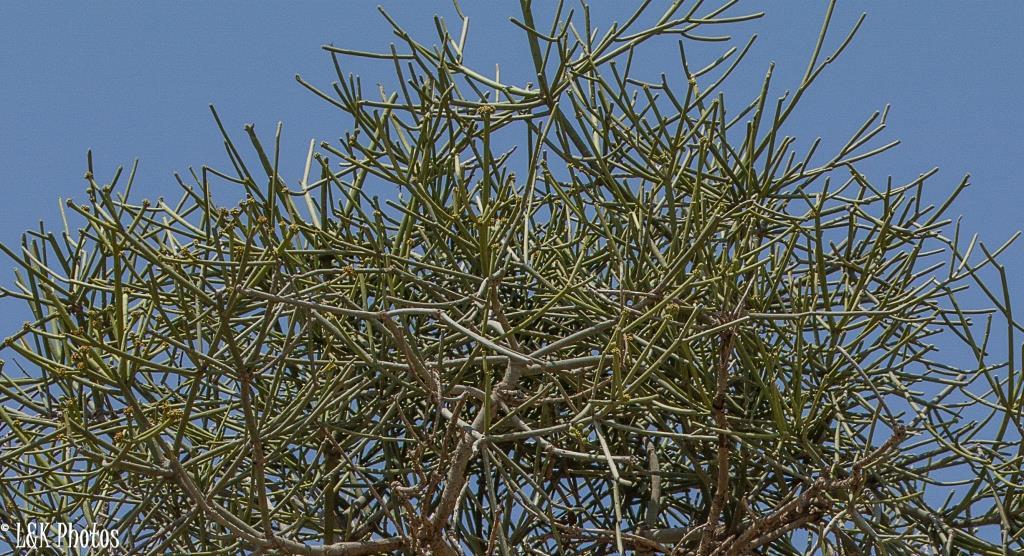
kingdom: Plantae
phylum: Tracheophyta
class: Magnoliopsida
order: Malpighiales
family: Euphorbiaceae
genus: Euphorbia
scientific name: Euphorbia tirucalli
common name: Indiantree spurge
